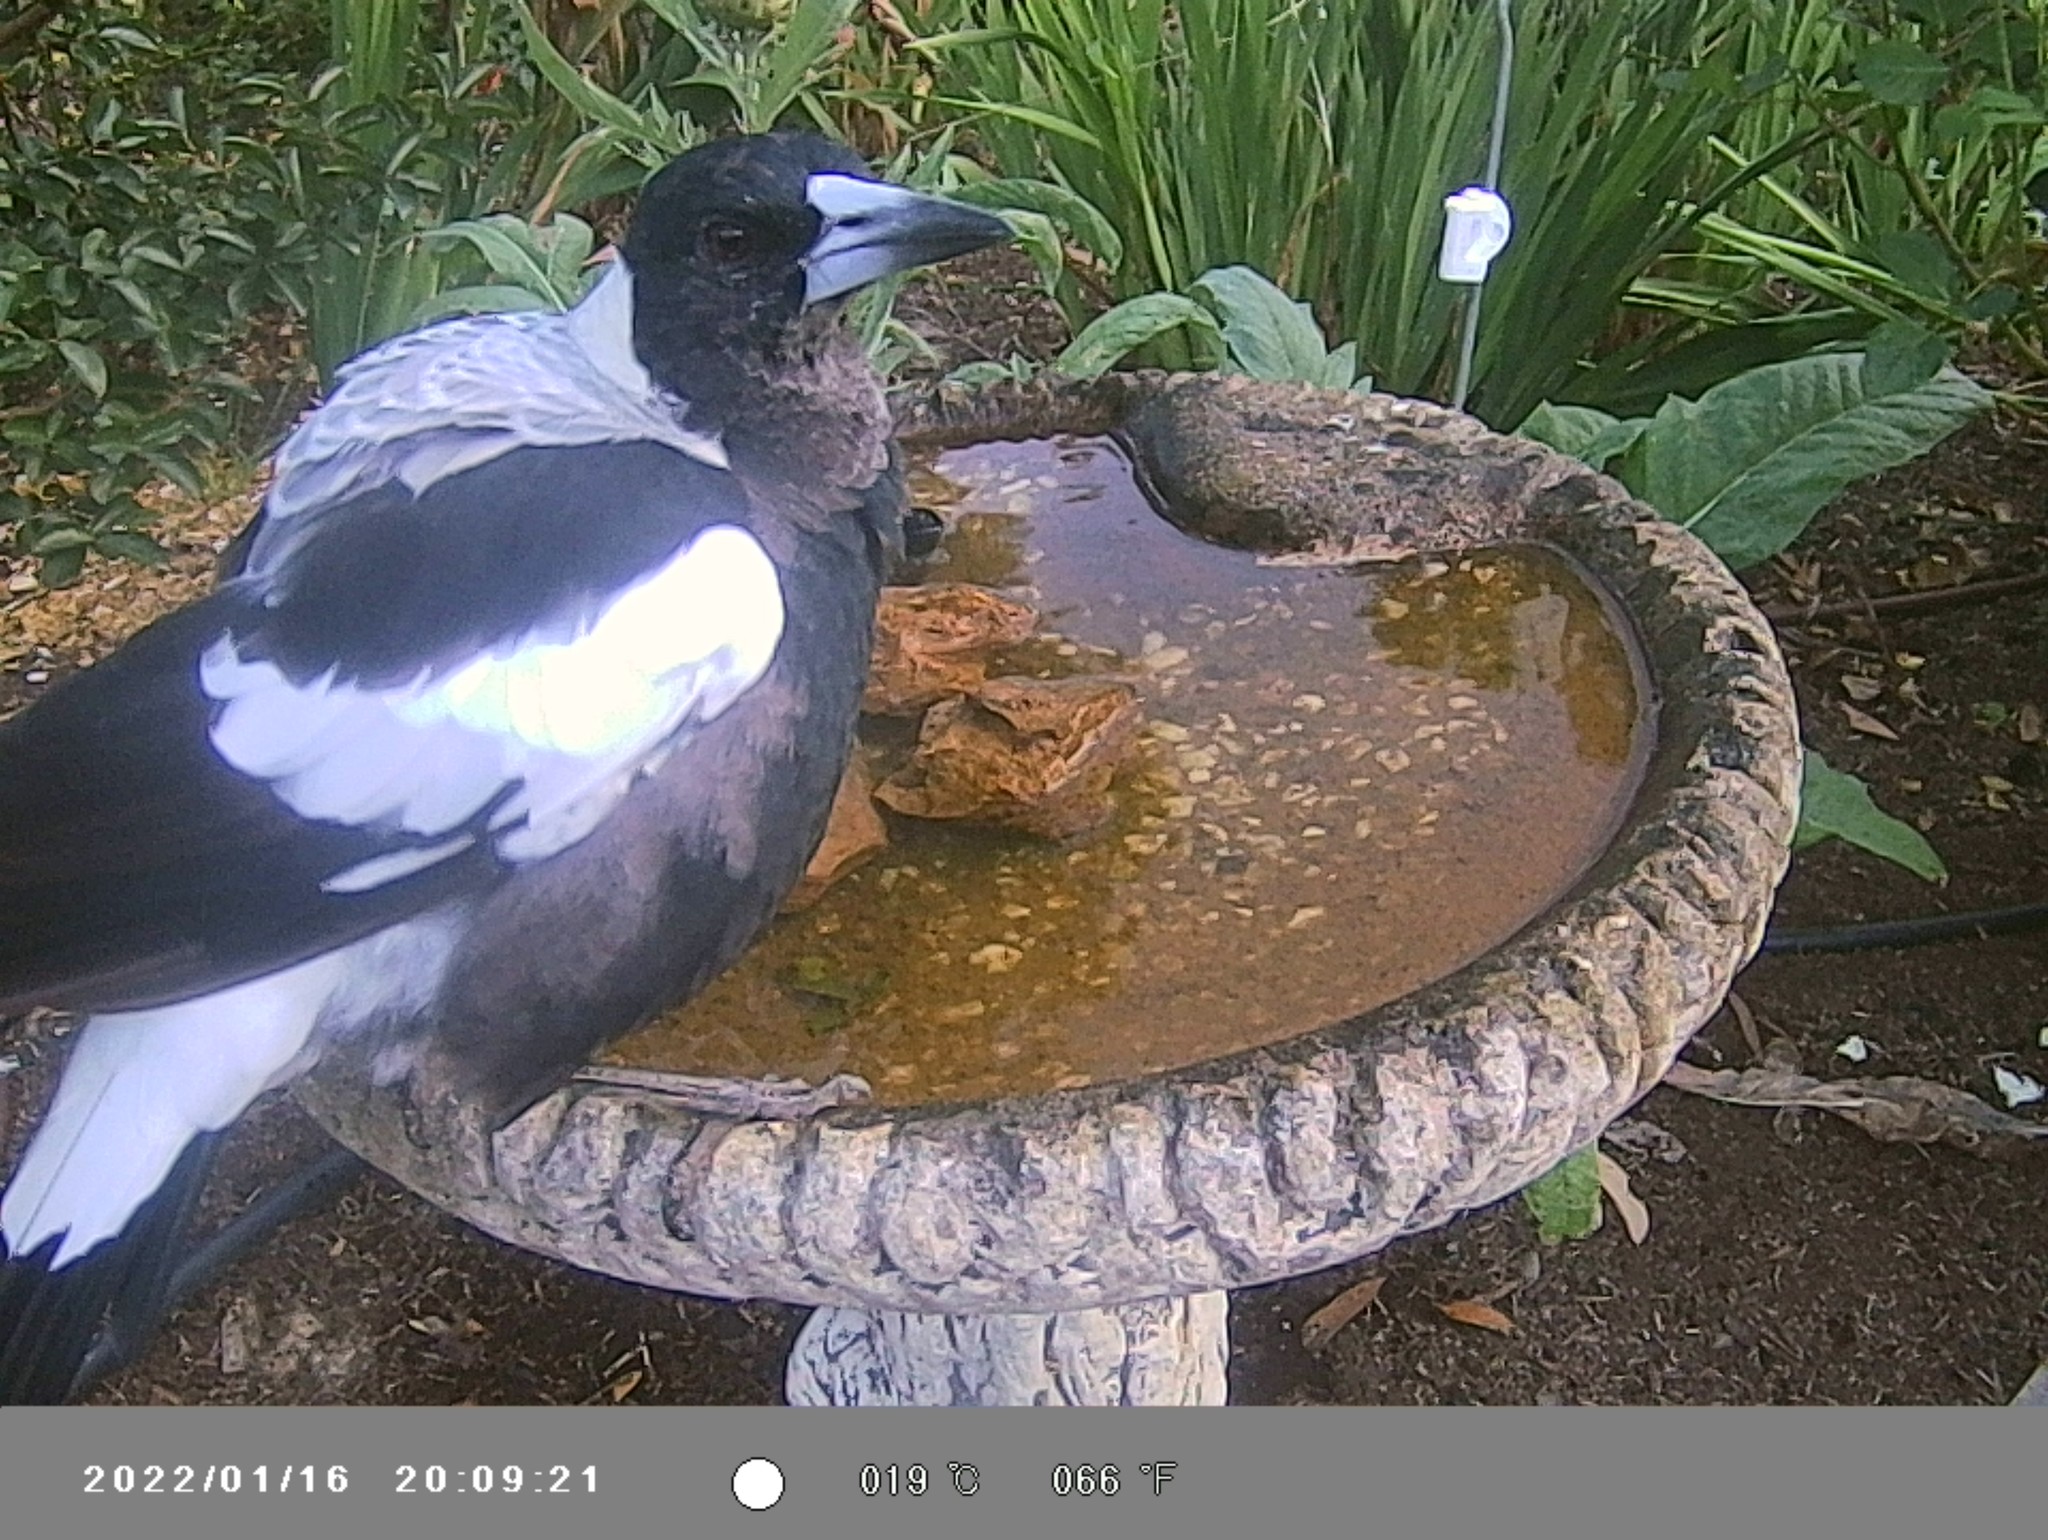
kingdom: Animalia
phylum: Chordata
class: Aves
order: Passeriformes
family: Cracticidae
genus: Gymnorhina
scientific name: Gymnorhina tibicen
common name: Australian magpie
